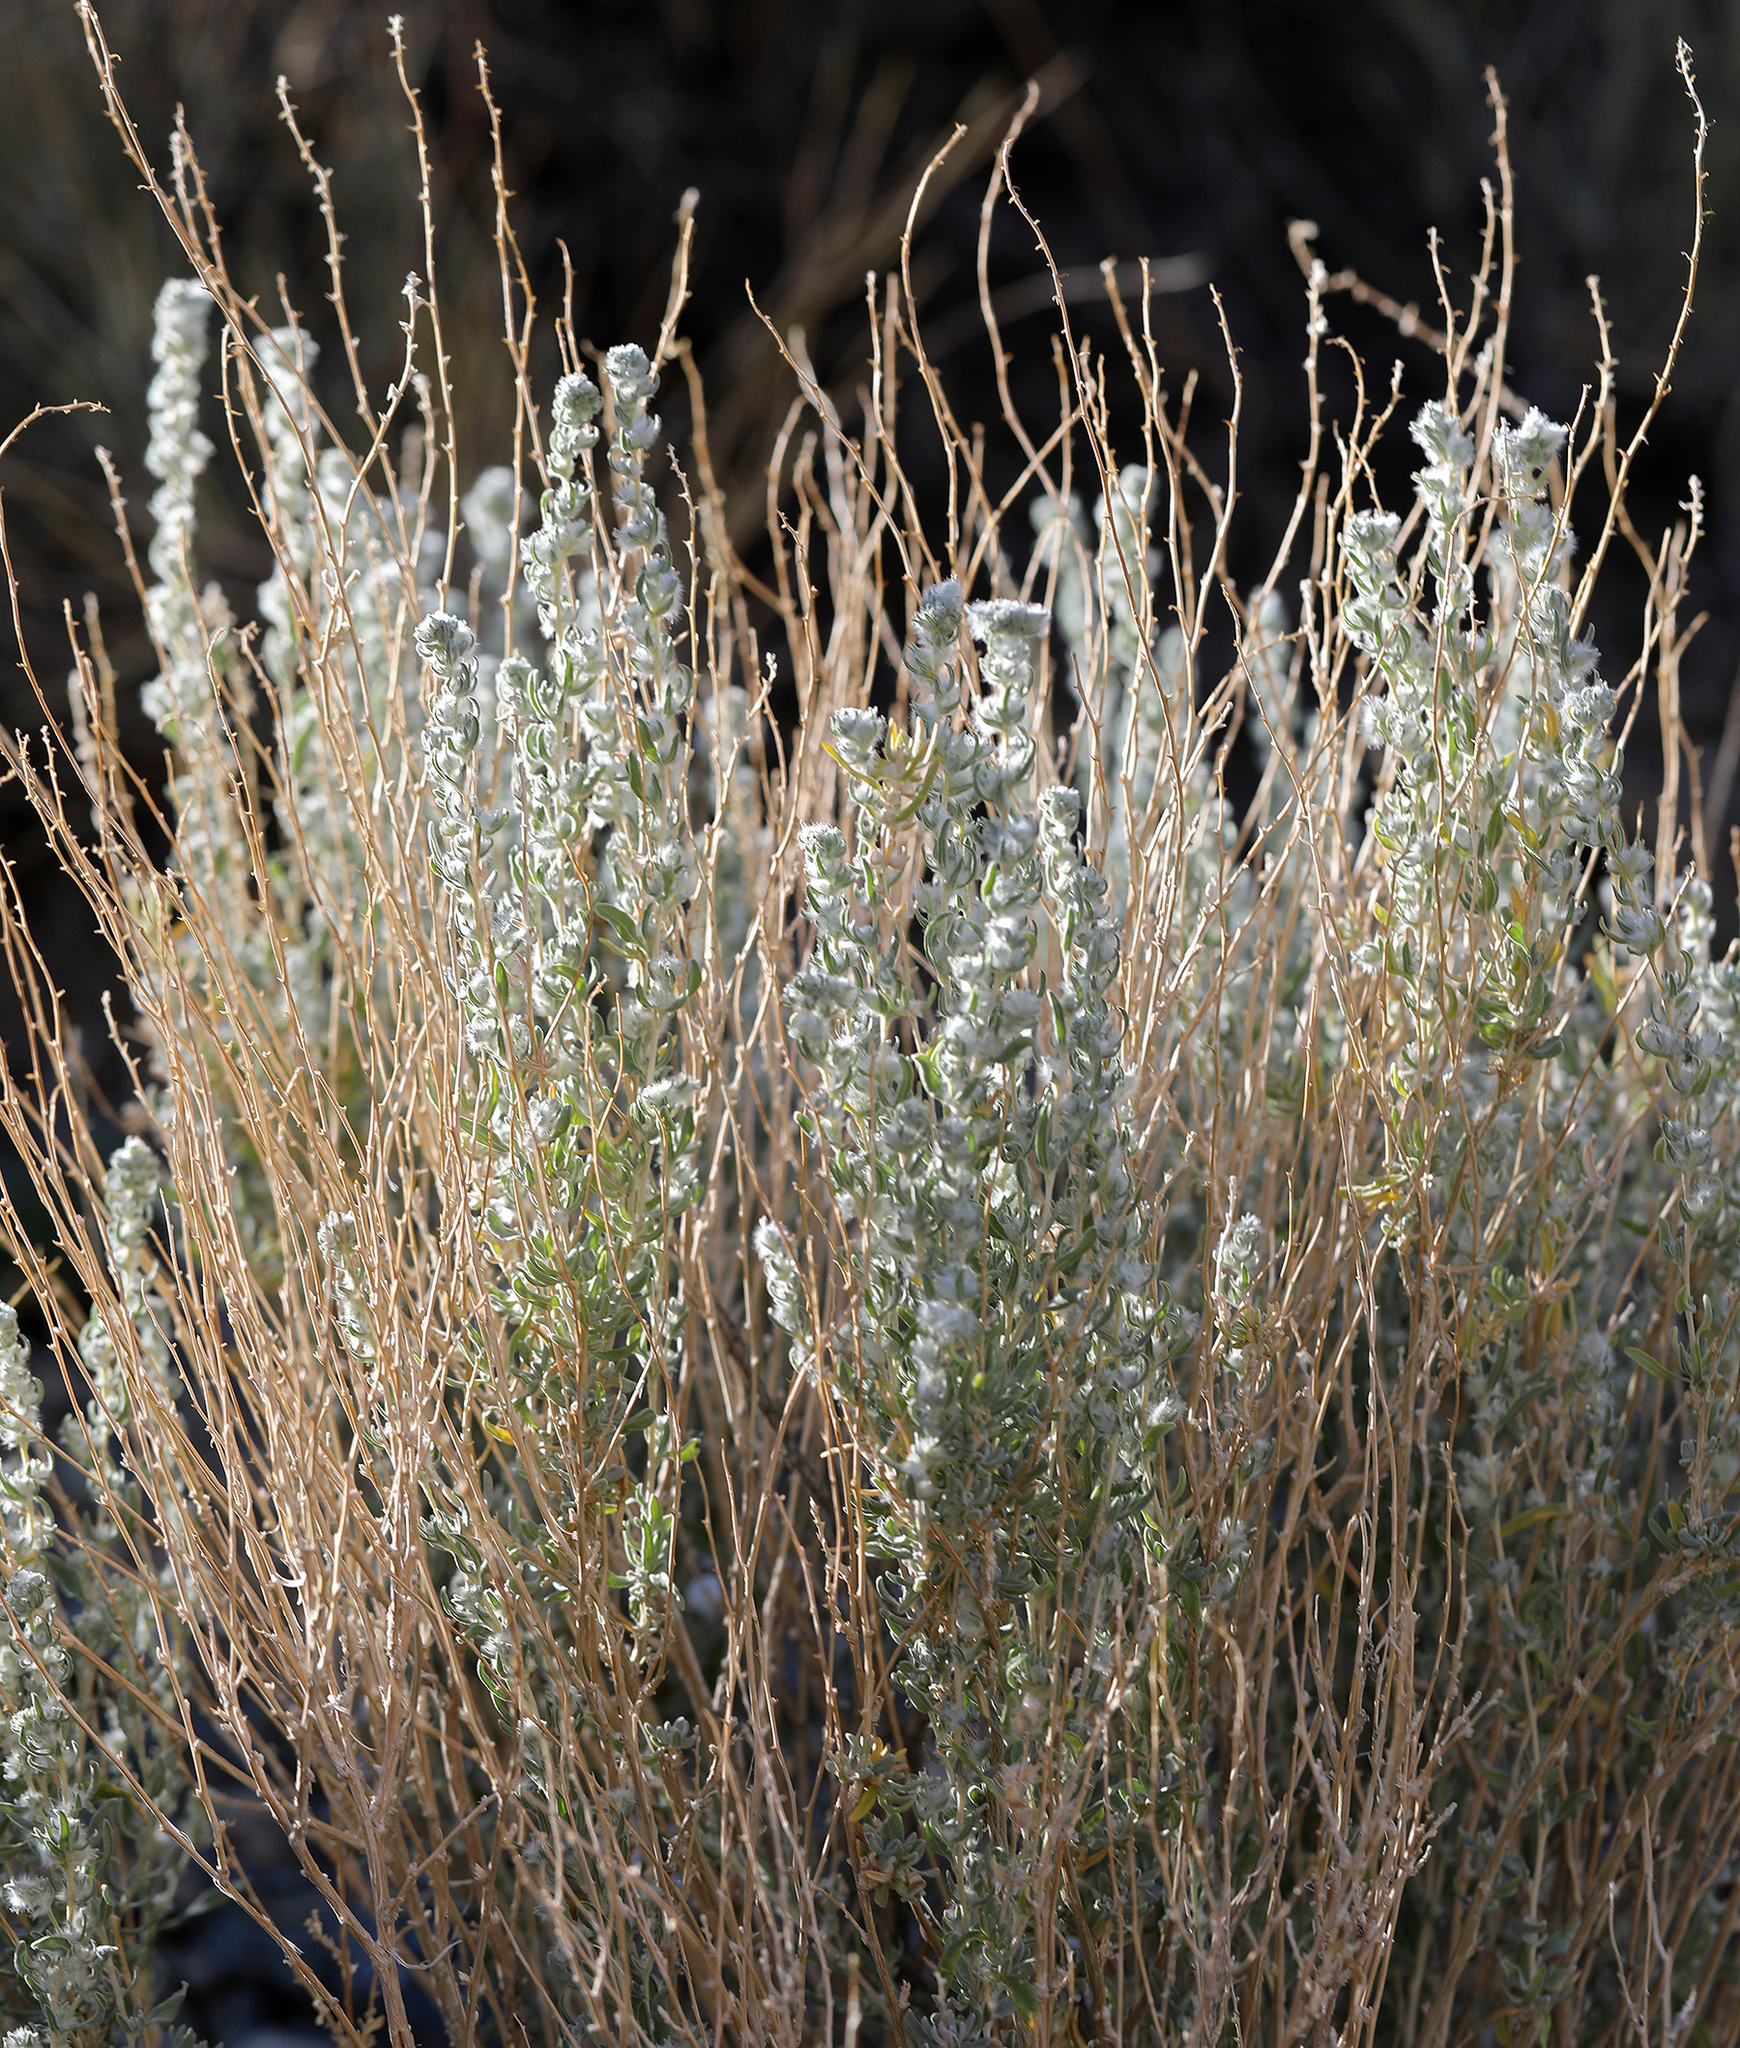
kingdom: Plantae
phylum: Tracheophyta
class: Magnoliopsida
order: Caryophyllales
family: Amaranthaceae
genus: Krascheninnikovia
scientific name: Krascheninnikovia lanata
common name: Winterfat
